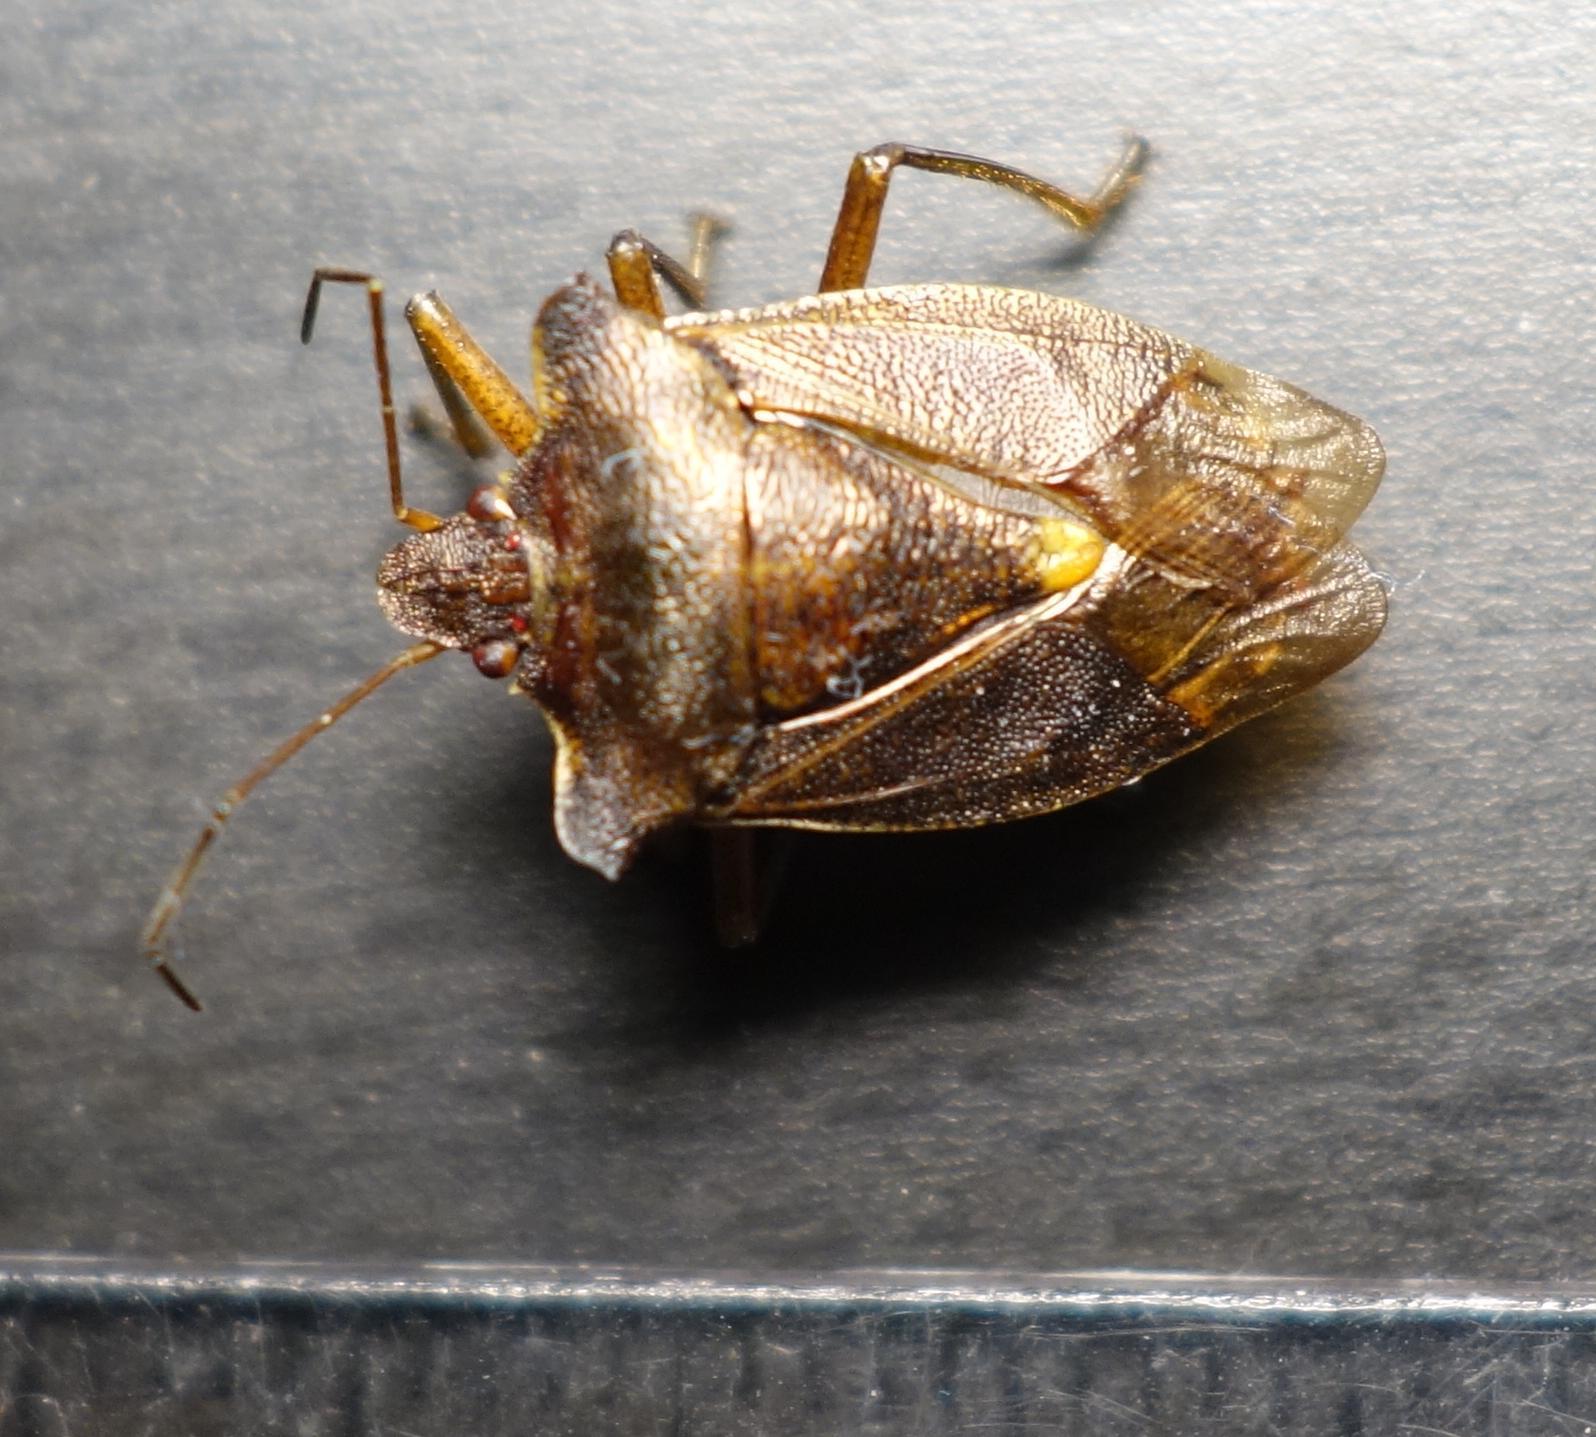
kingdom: Animalia
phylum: Arthropoda
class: Insecta
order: Hemiptera
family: Pentatomidae
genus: Pentatoma
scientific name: Pentatoma rufipes
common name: Forest bug
